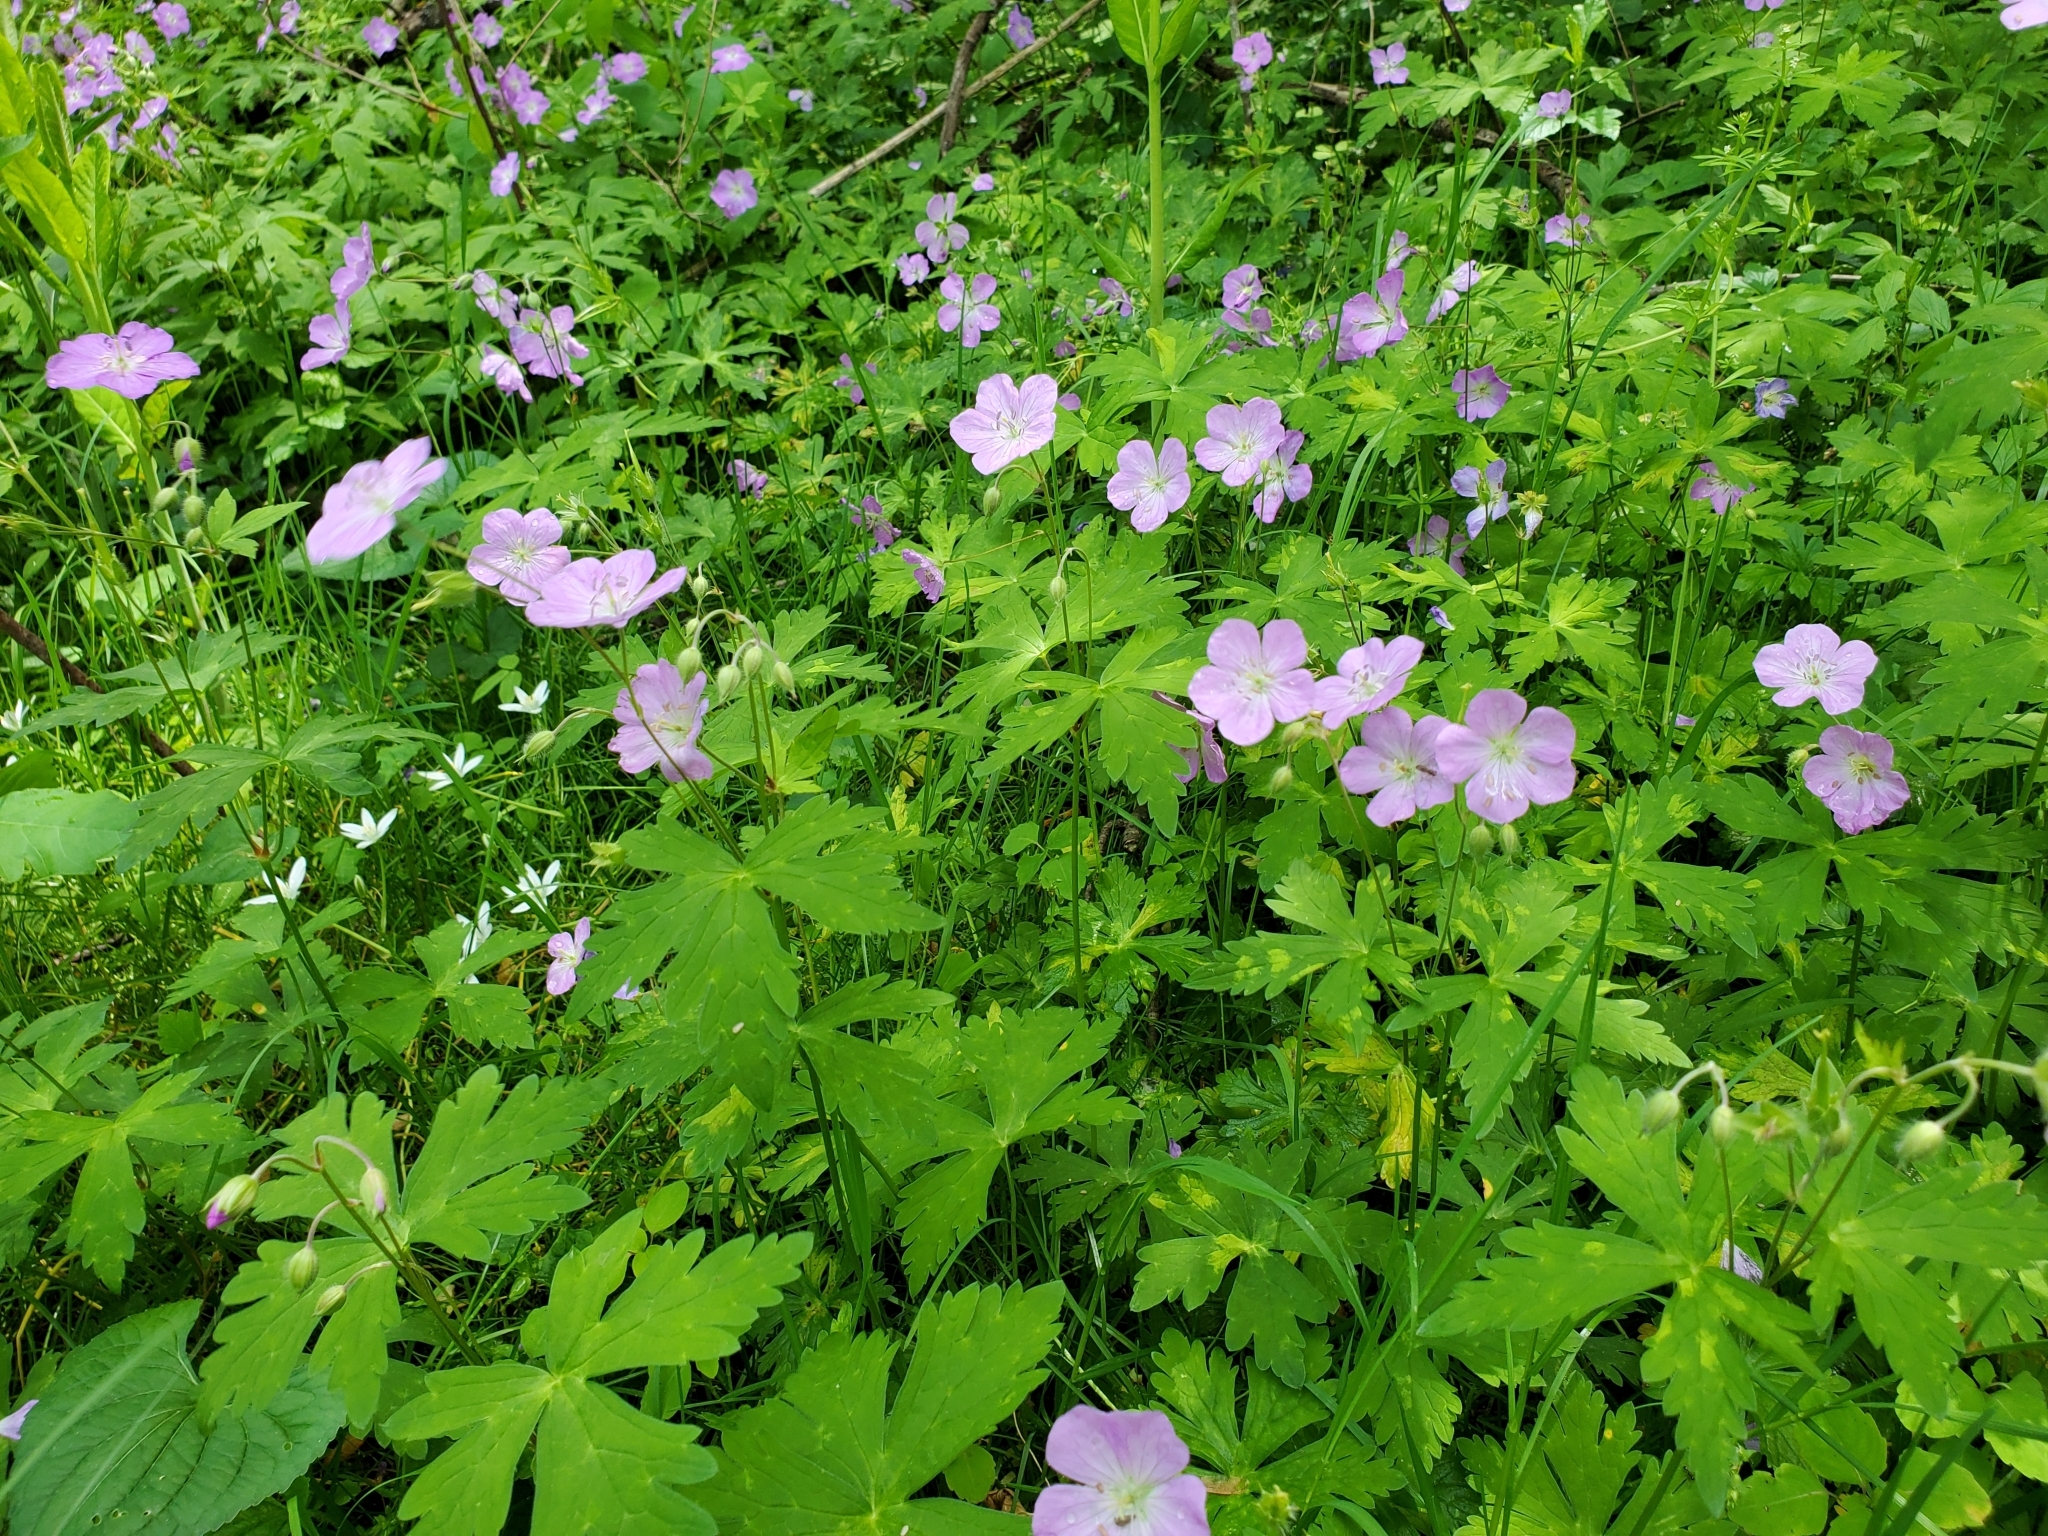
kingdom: Plantae
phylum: Tracheophyta
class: Magnoliopsida
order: Geraniales
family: Geraniaceae
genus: Geranium
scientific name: Geranium maculatum
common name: Spotted geranium
